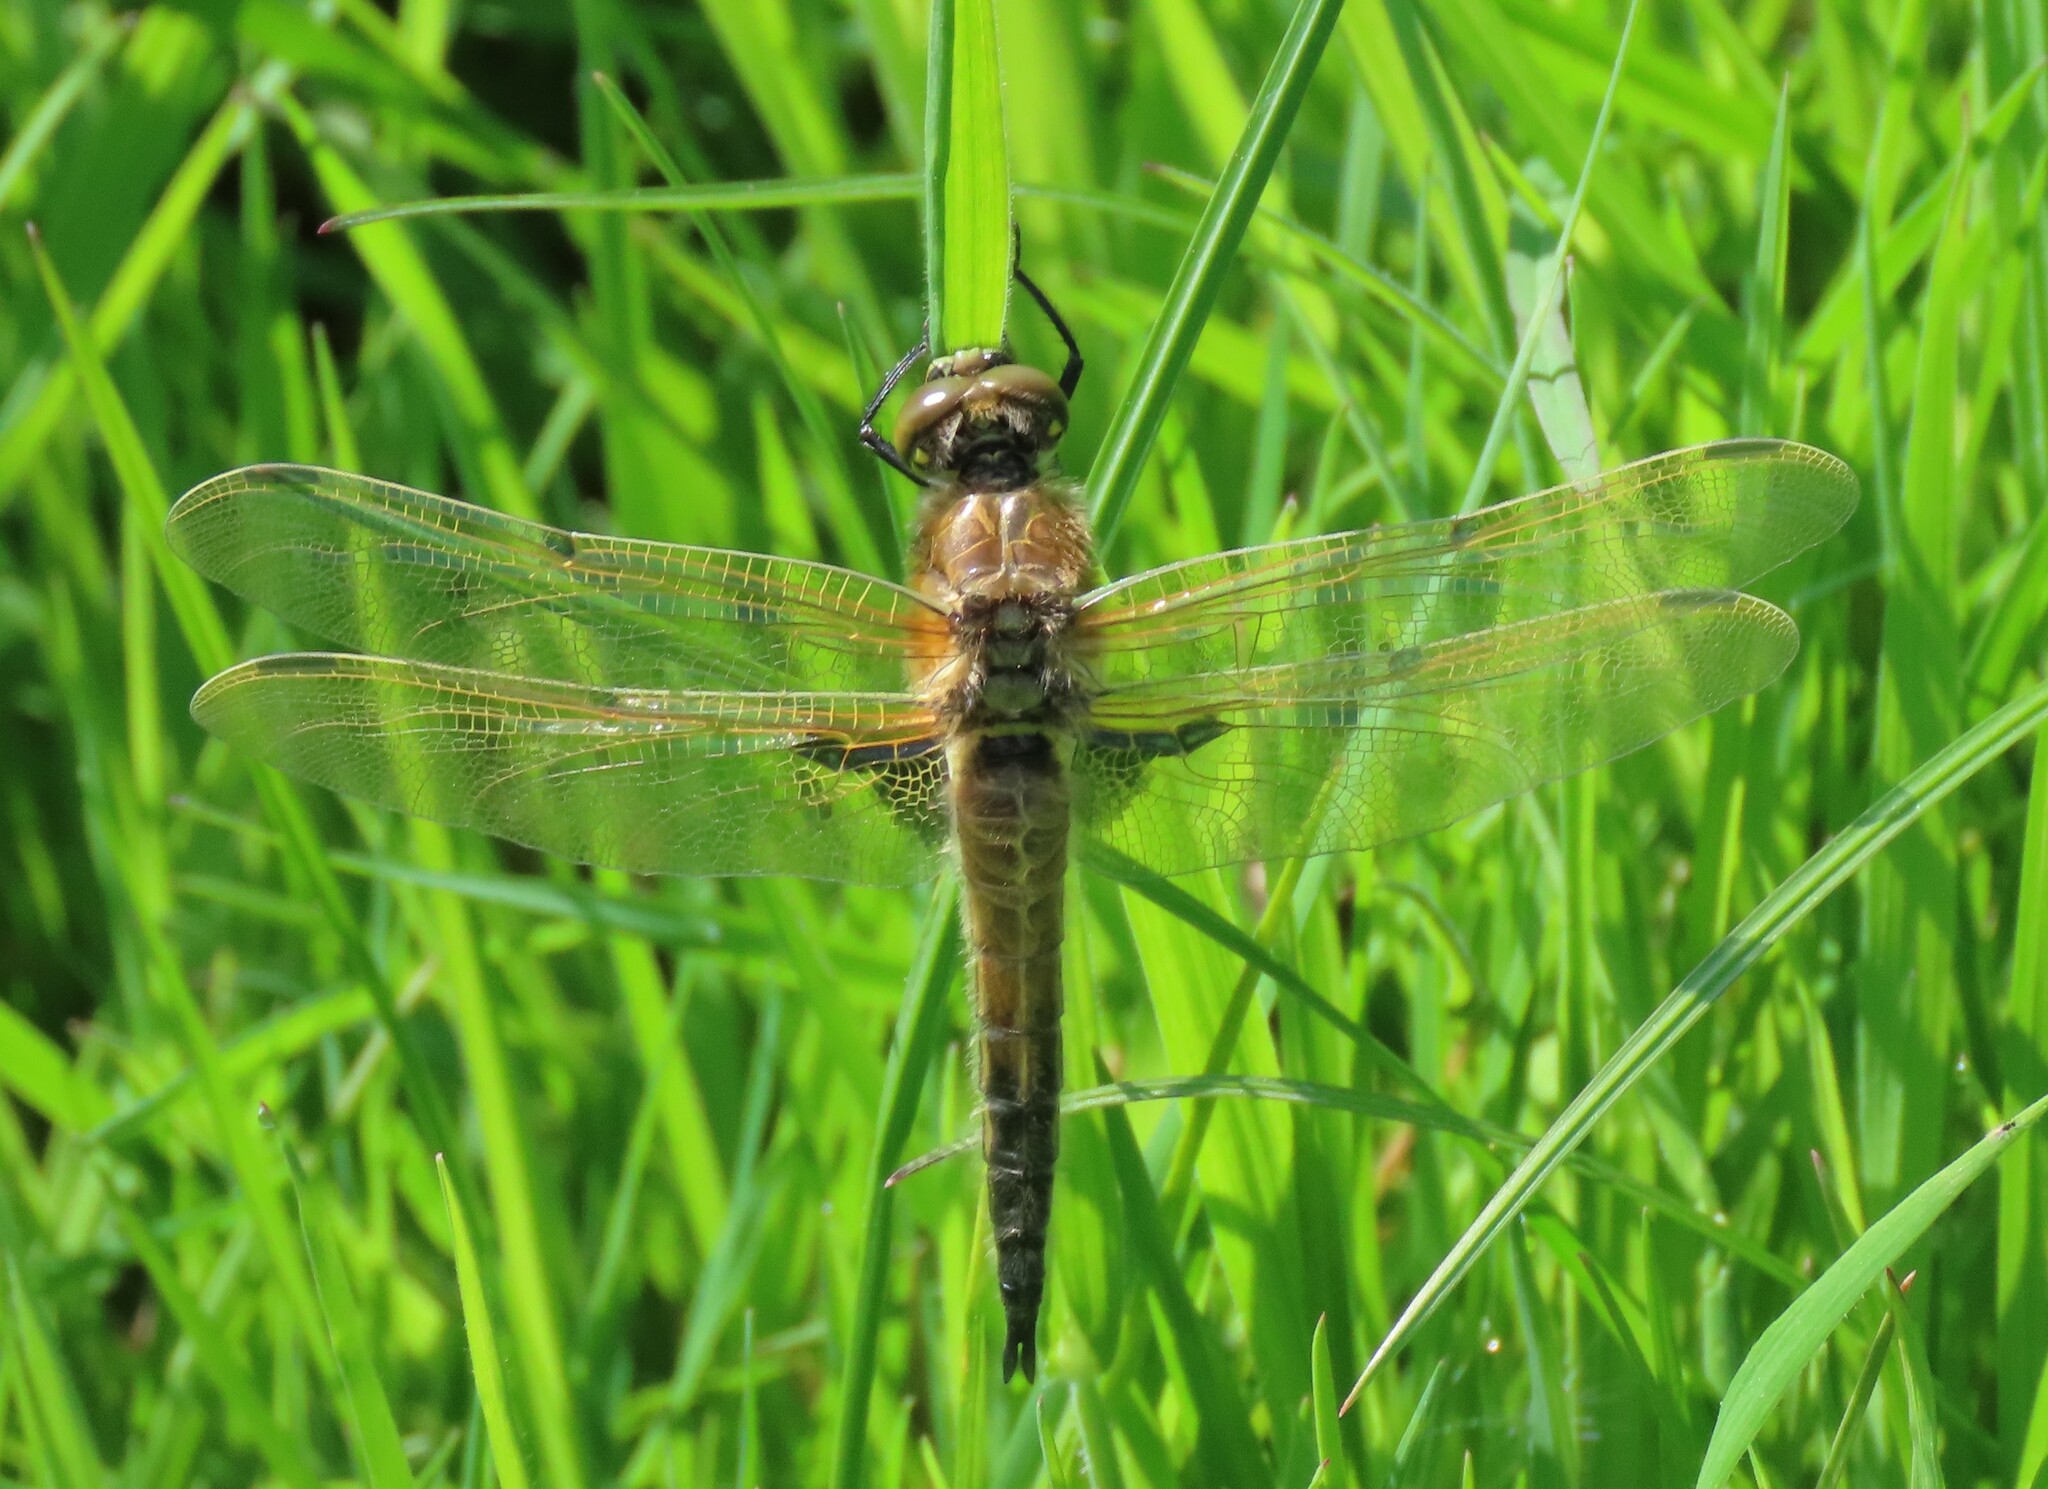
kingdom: Animalia
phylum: Arthropoda
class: Insecta
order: Odonata
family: Libellulidae
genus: Libellula
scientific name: Libellula quadrimaculata
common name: Four-spotted chaser
